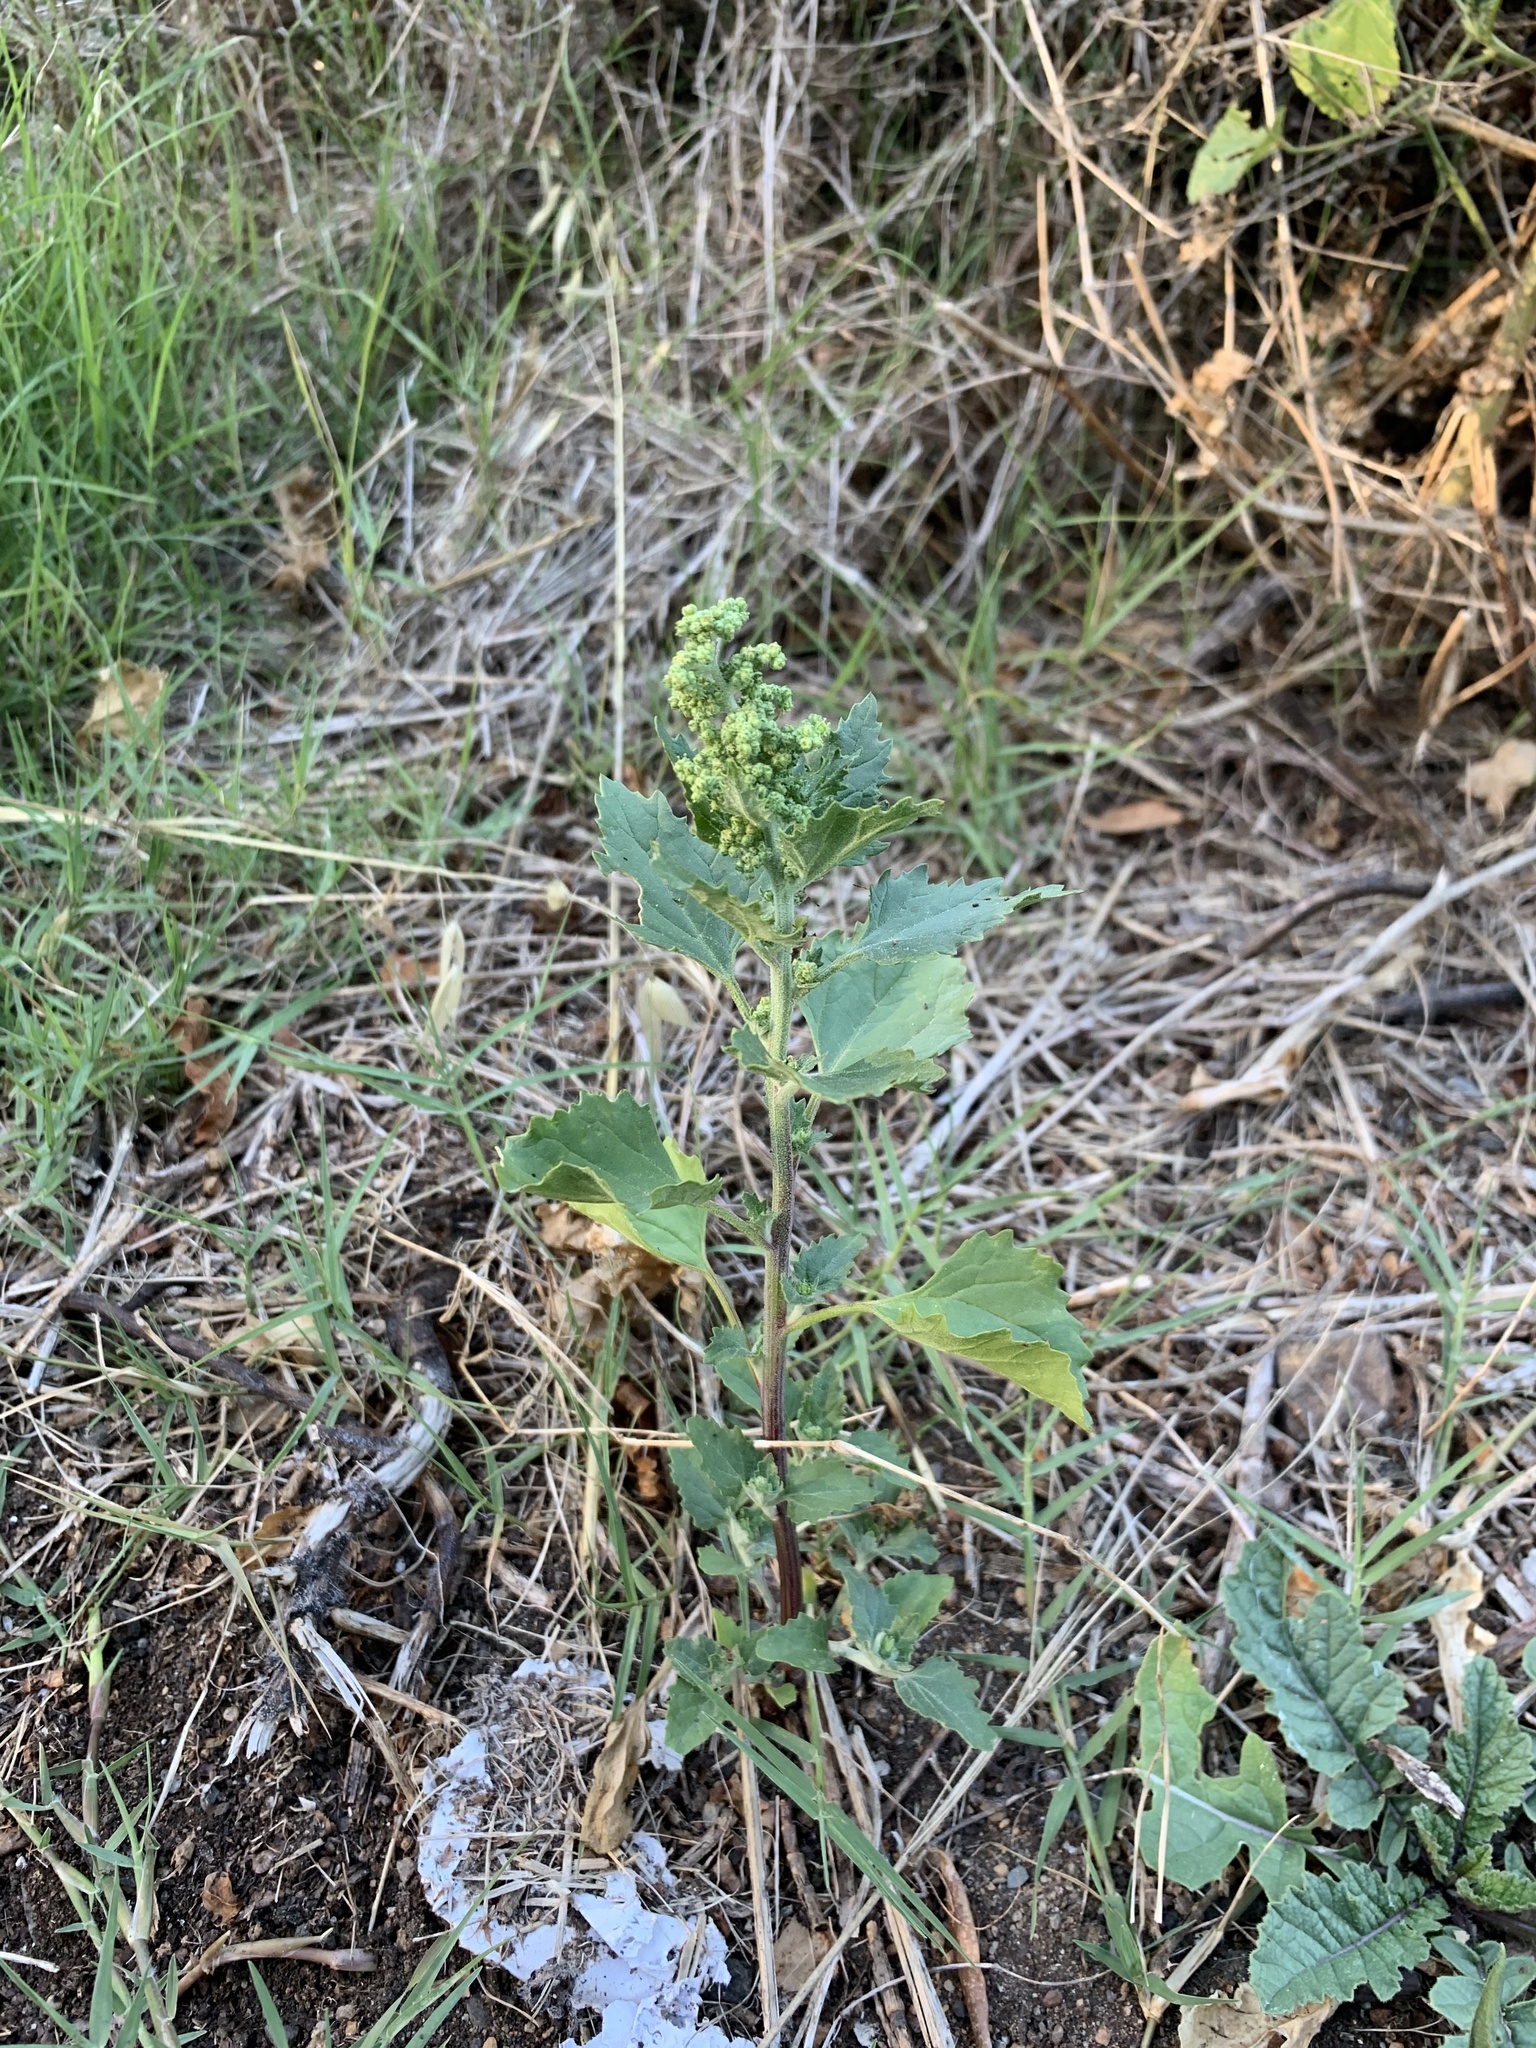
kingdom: Plantae
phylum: Tracheophyta
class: Magnoliopsida
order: Caryophyllales
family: Amaranthaceae
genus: Chenopodiastrum
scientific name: Chenopodiastrum murale
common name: Sowbane
